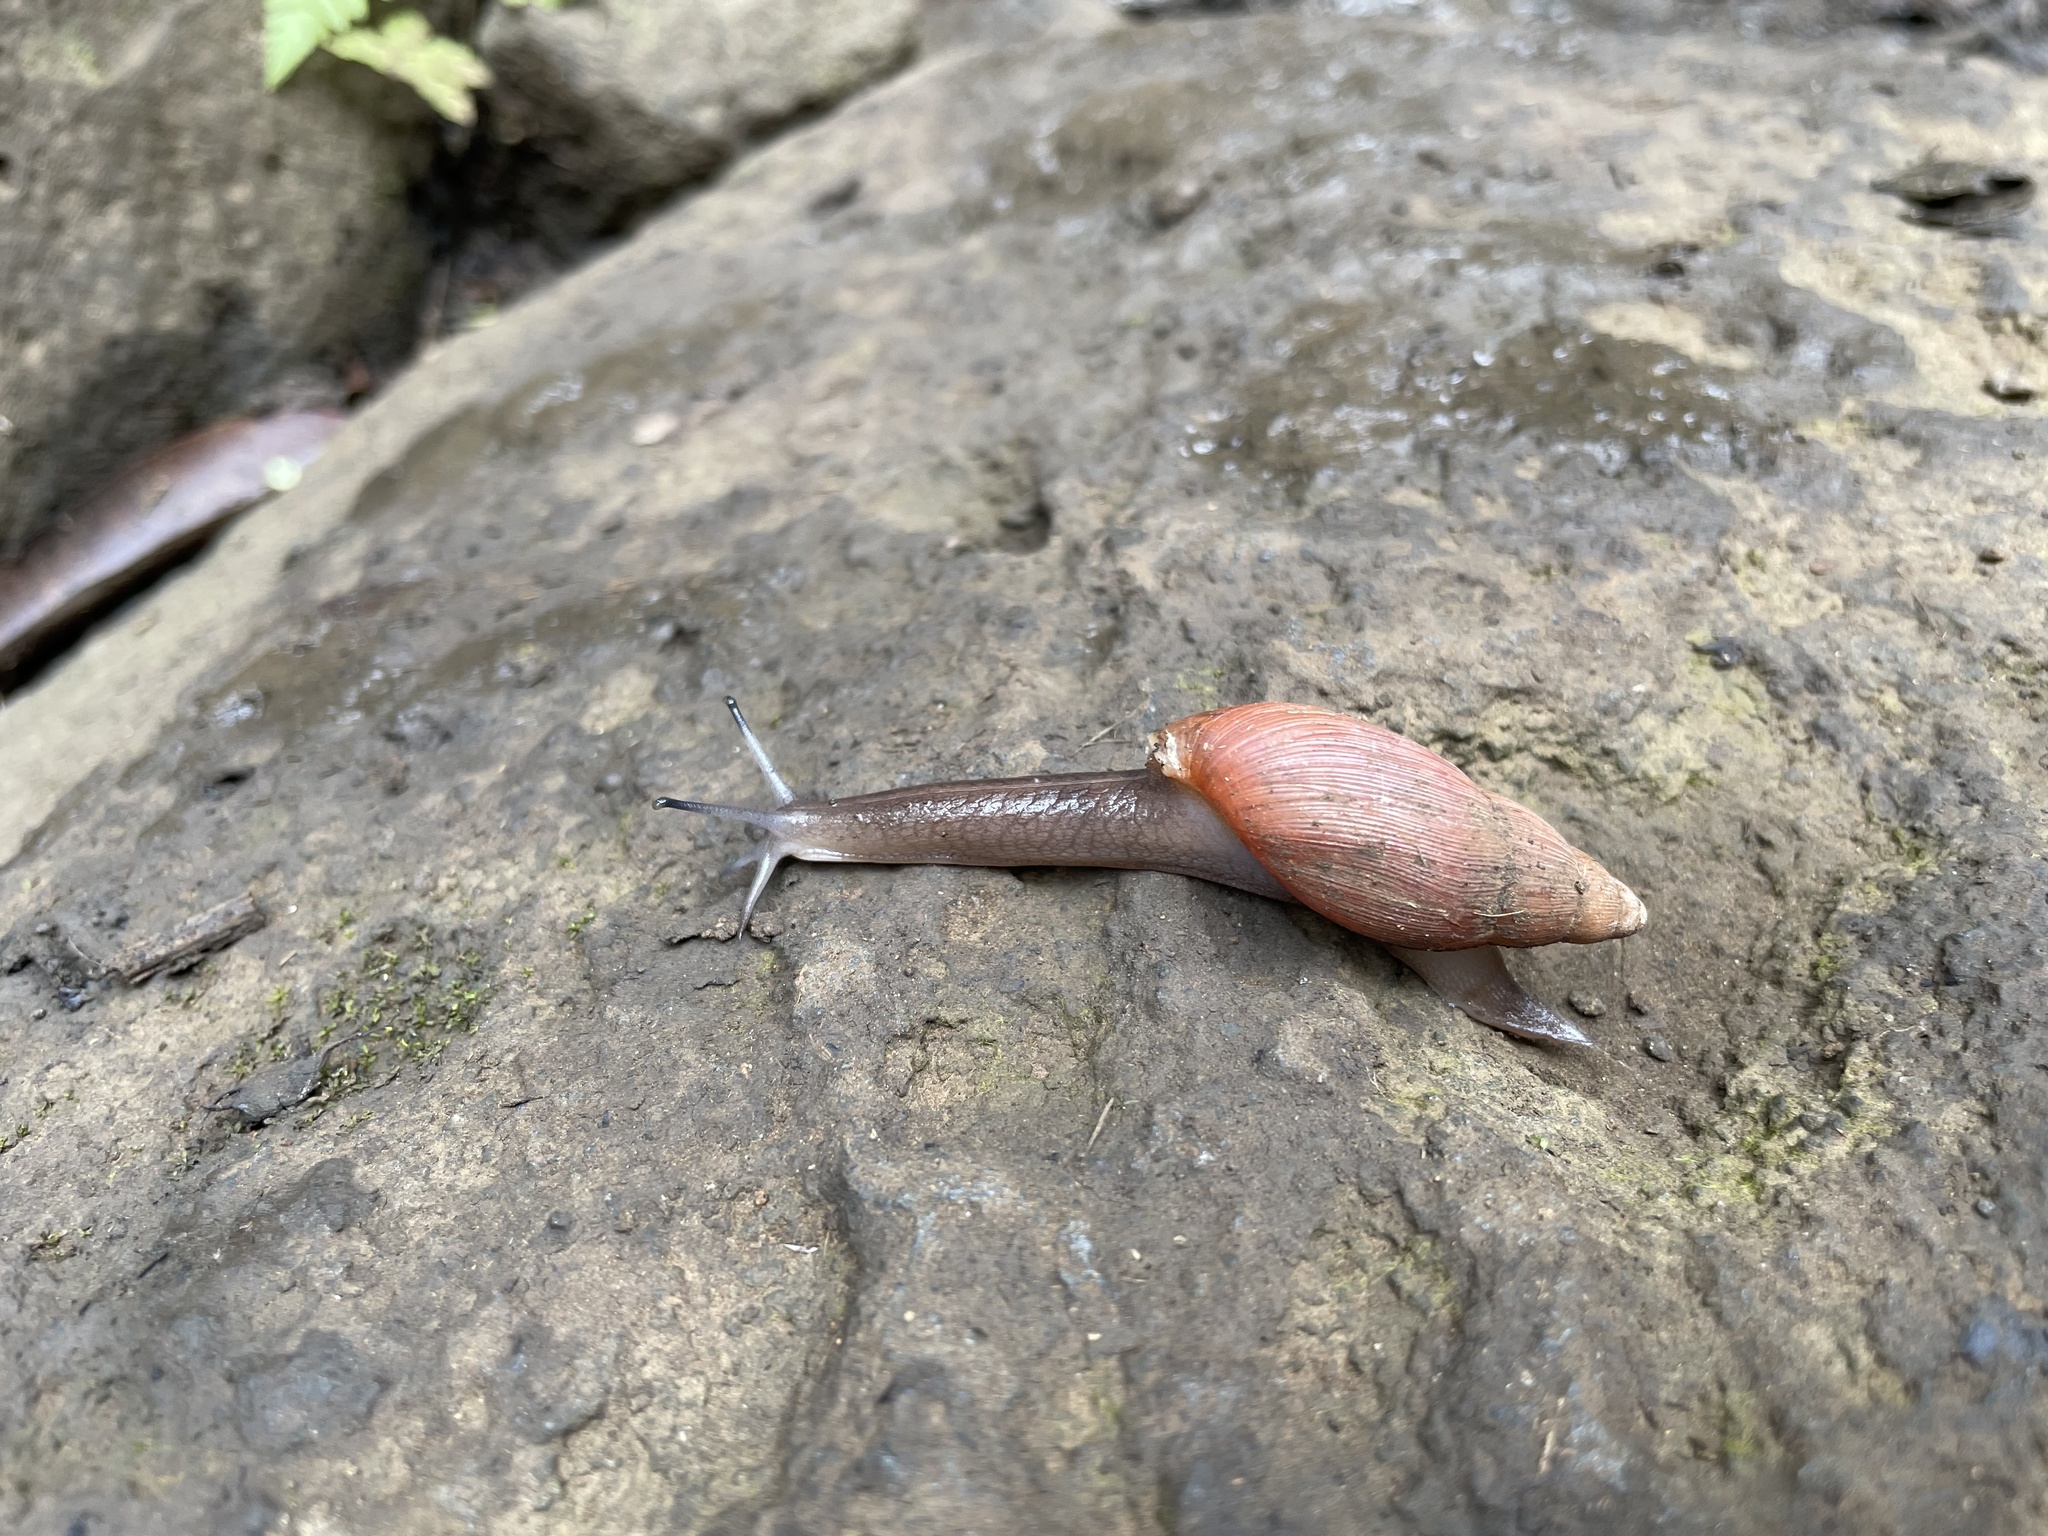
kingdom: Animalia
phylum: Mollusca
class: Gastropoda
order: Stylommatophora
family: Spiraxidae
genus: Euglandina
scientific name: Euglandina rosea
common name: Rosy wolfsnail
